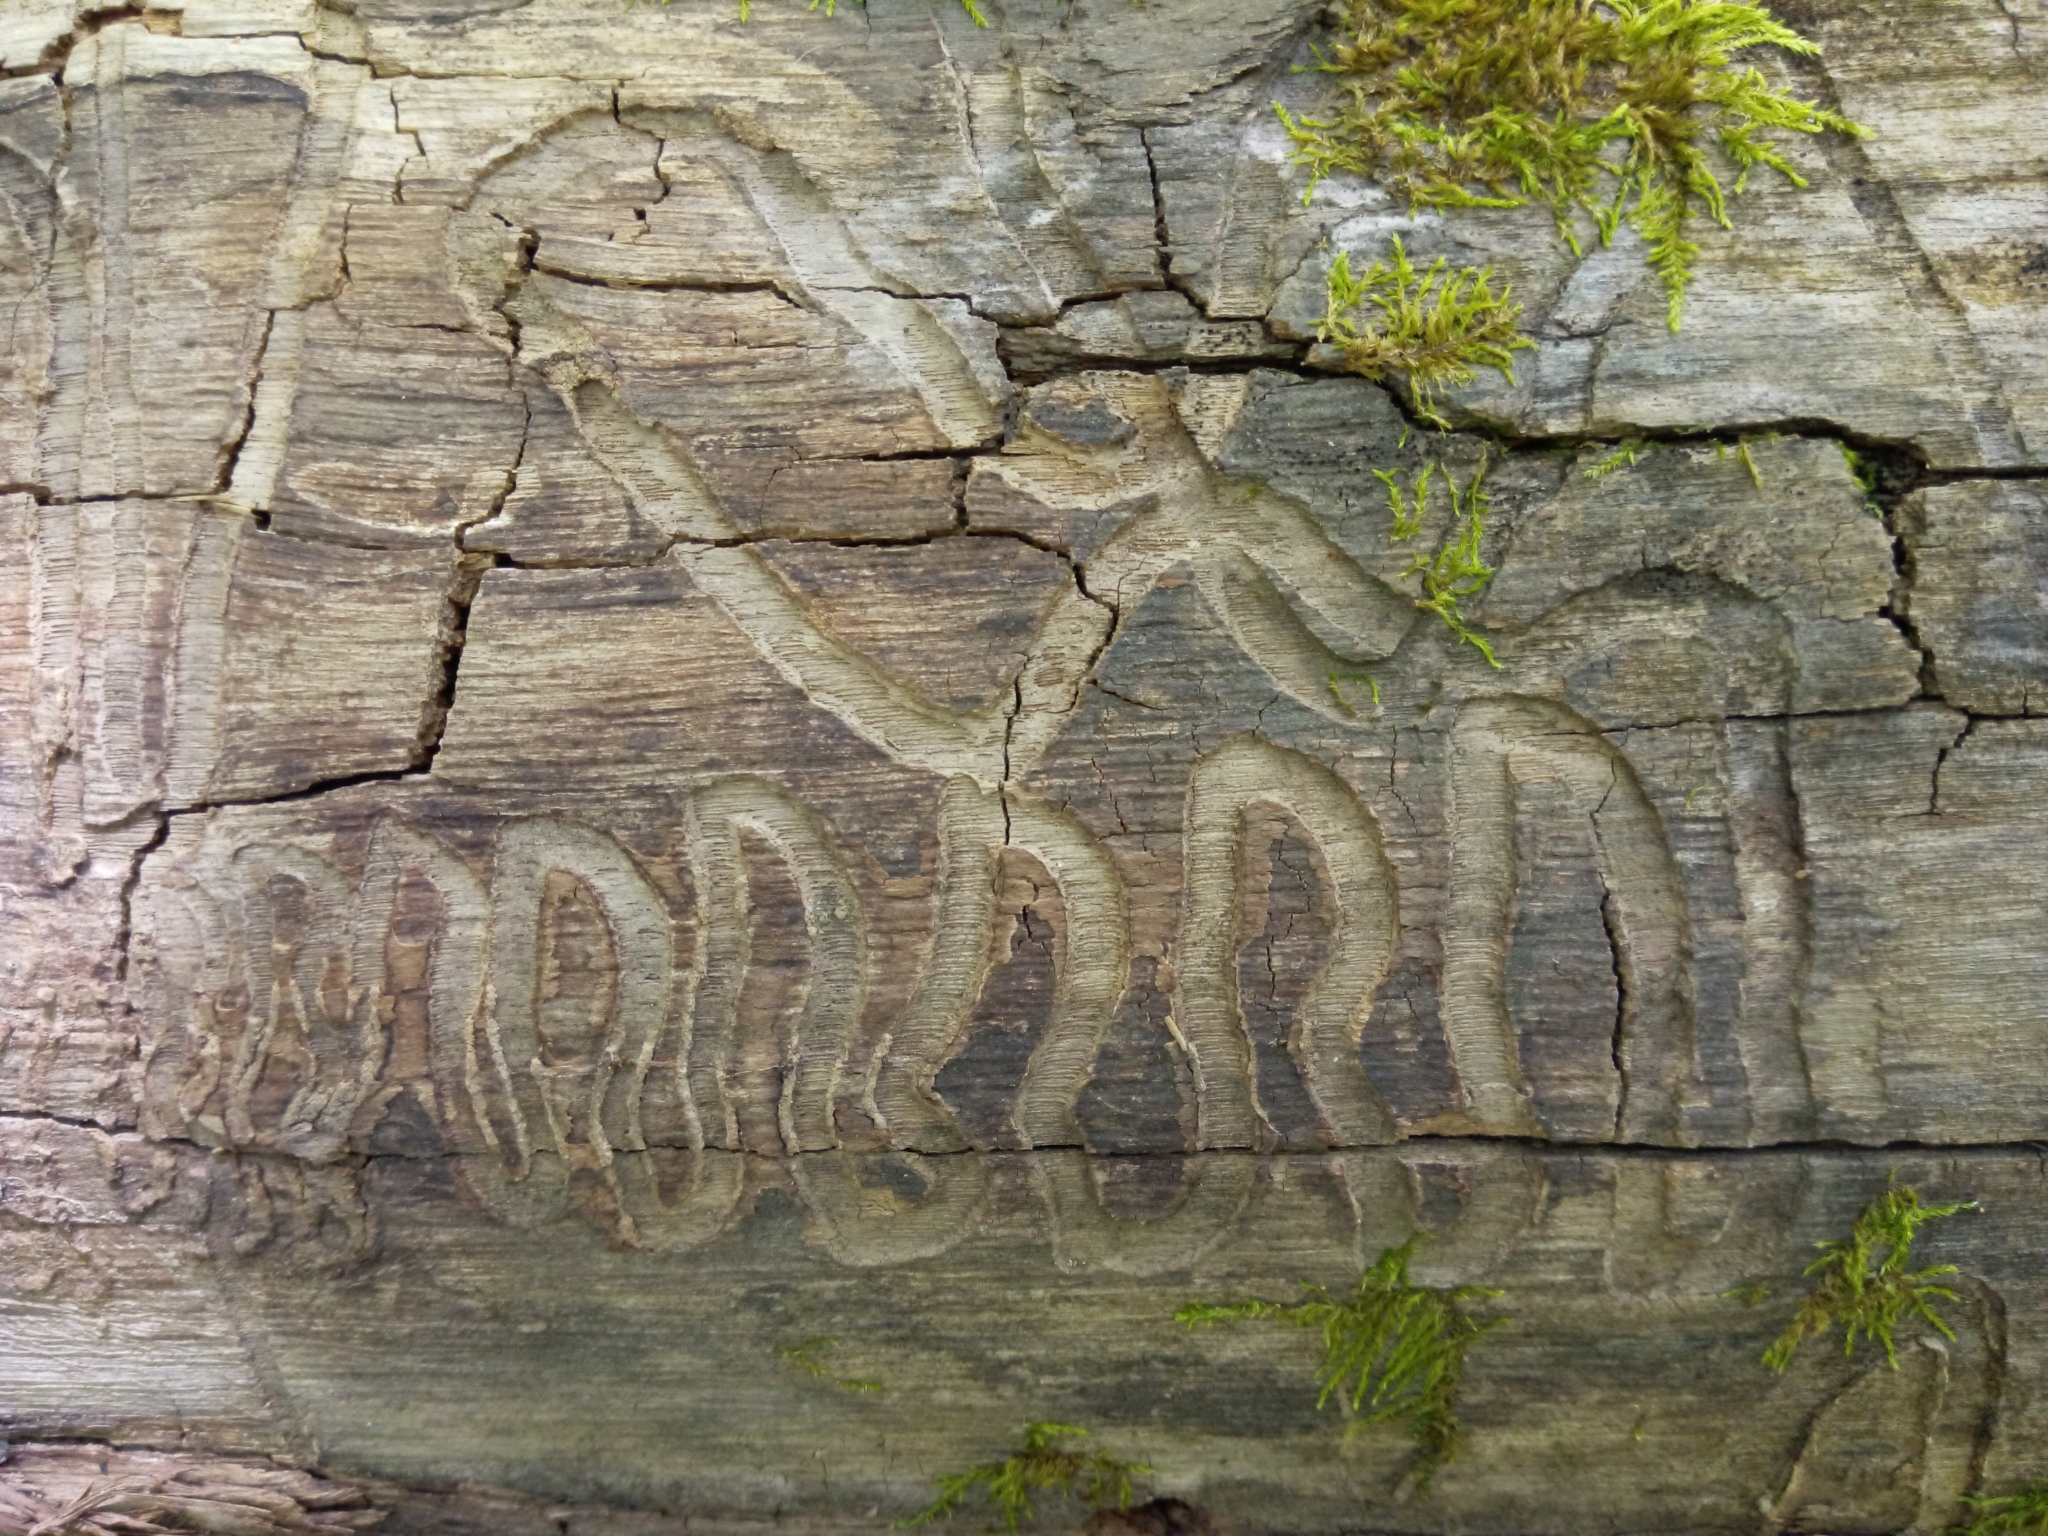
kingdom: Fungi
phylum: Ascomycota
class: Sordariomycetes
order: Microascales
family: Ceratocystidaceae
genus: Ophiostoma
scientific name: Ophiostoma ulmi
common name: Dutch elm disease
